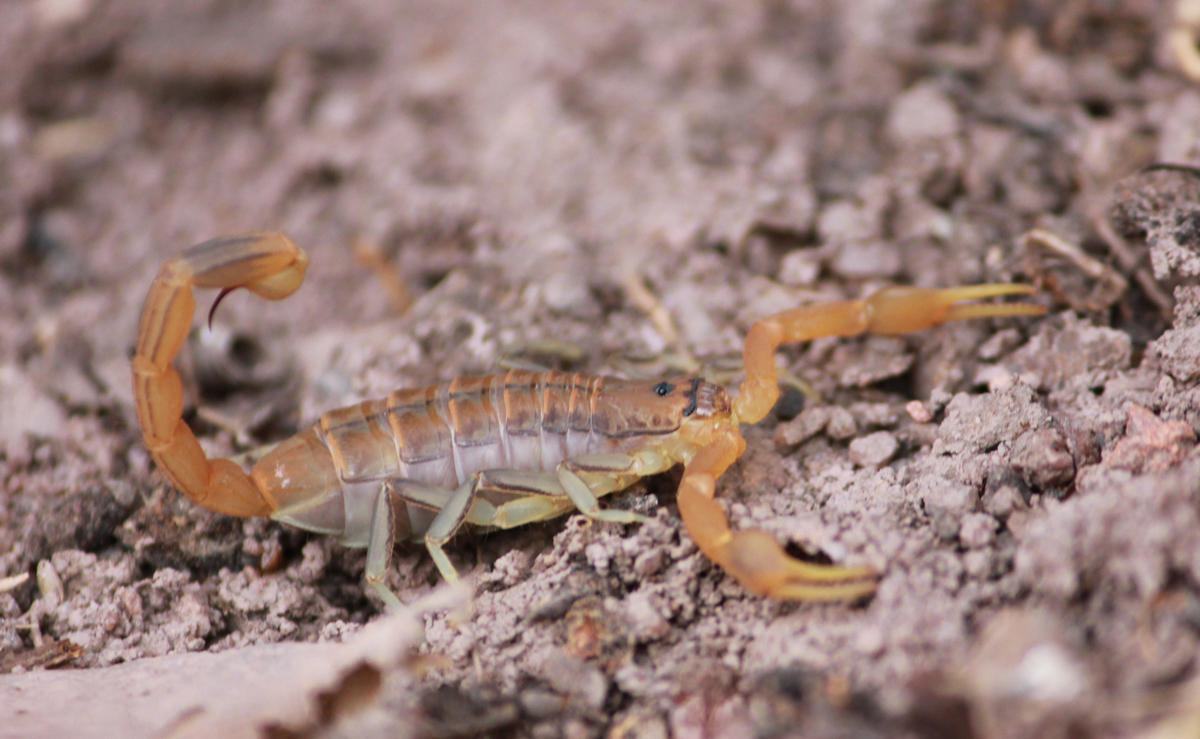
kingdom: Animalia
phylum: Arthropoda
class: Arachnida
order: Scorpiones
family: Buthidae
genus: Uroplectes
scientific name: Uroplectes planimanus
